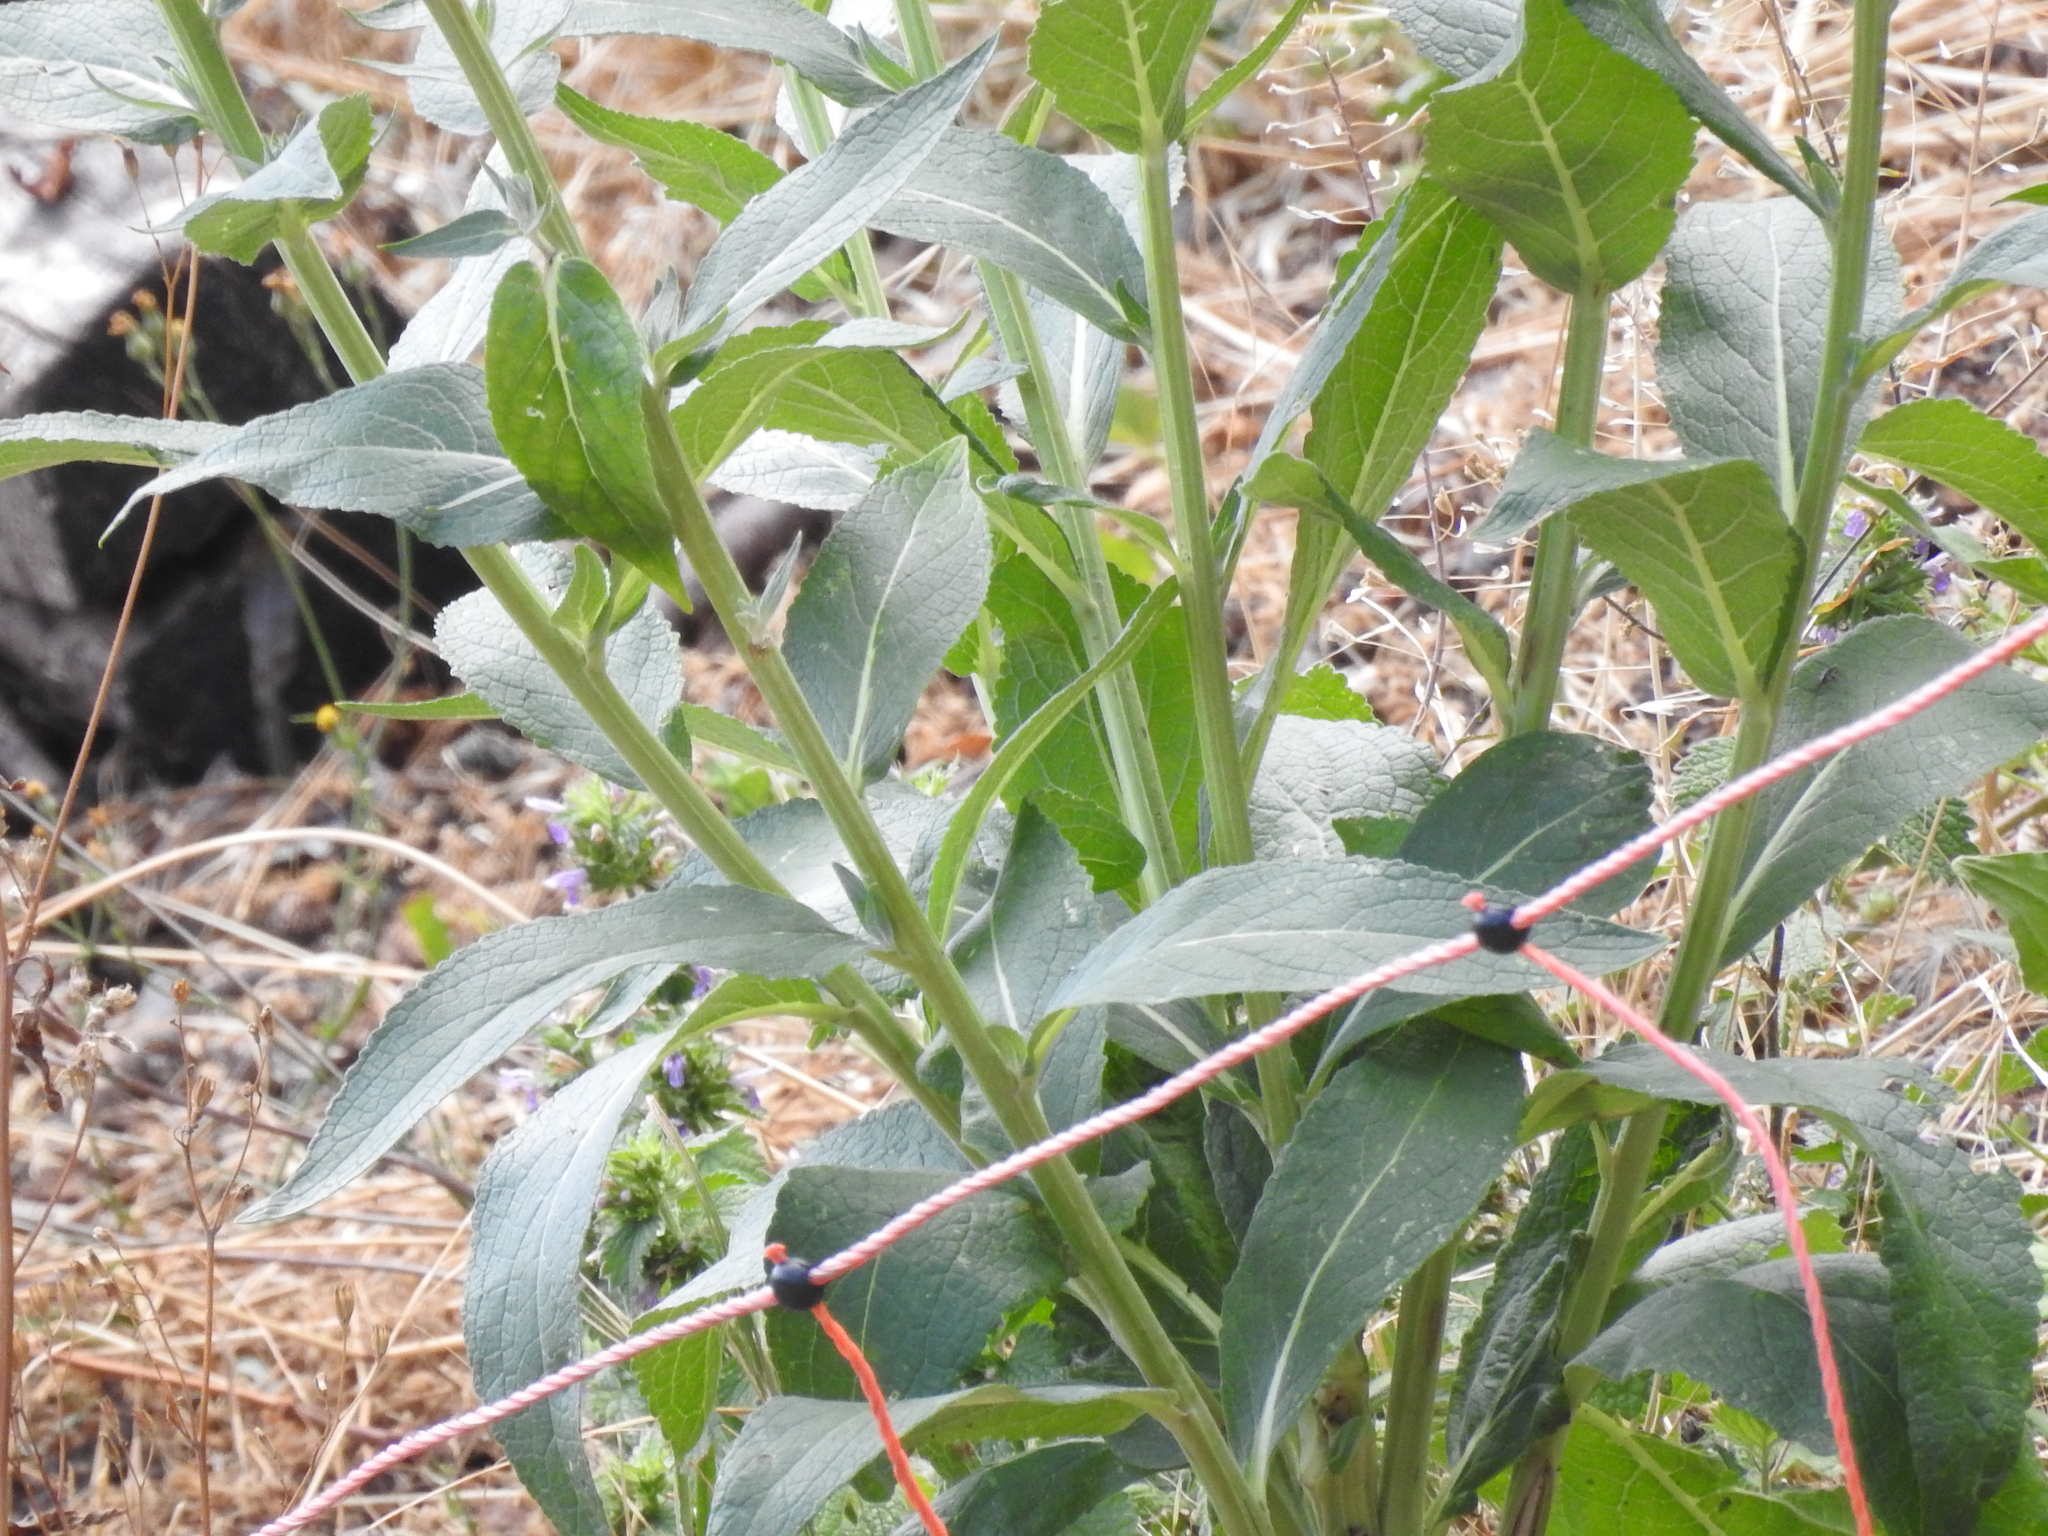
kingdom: Plantae
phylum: Tracheophyta
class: Magnoliopsida
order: Lamiales
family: Scrophulariaceae
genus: Verbascum
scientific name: Verbascum lychnitis
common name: White mullein
